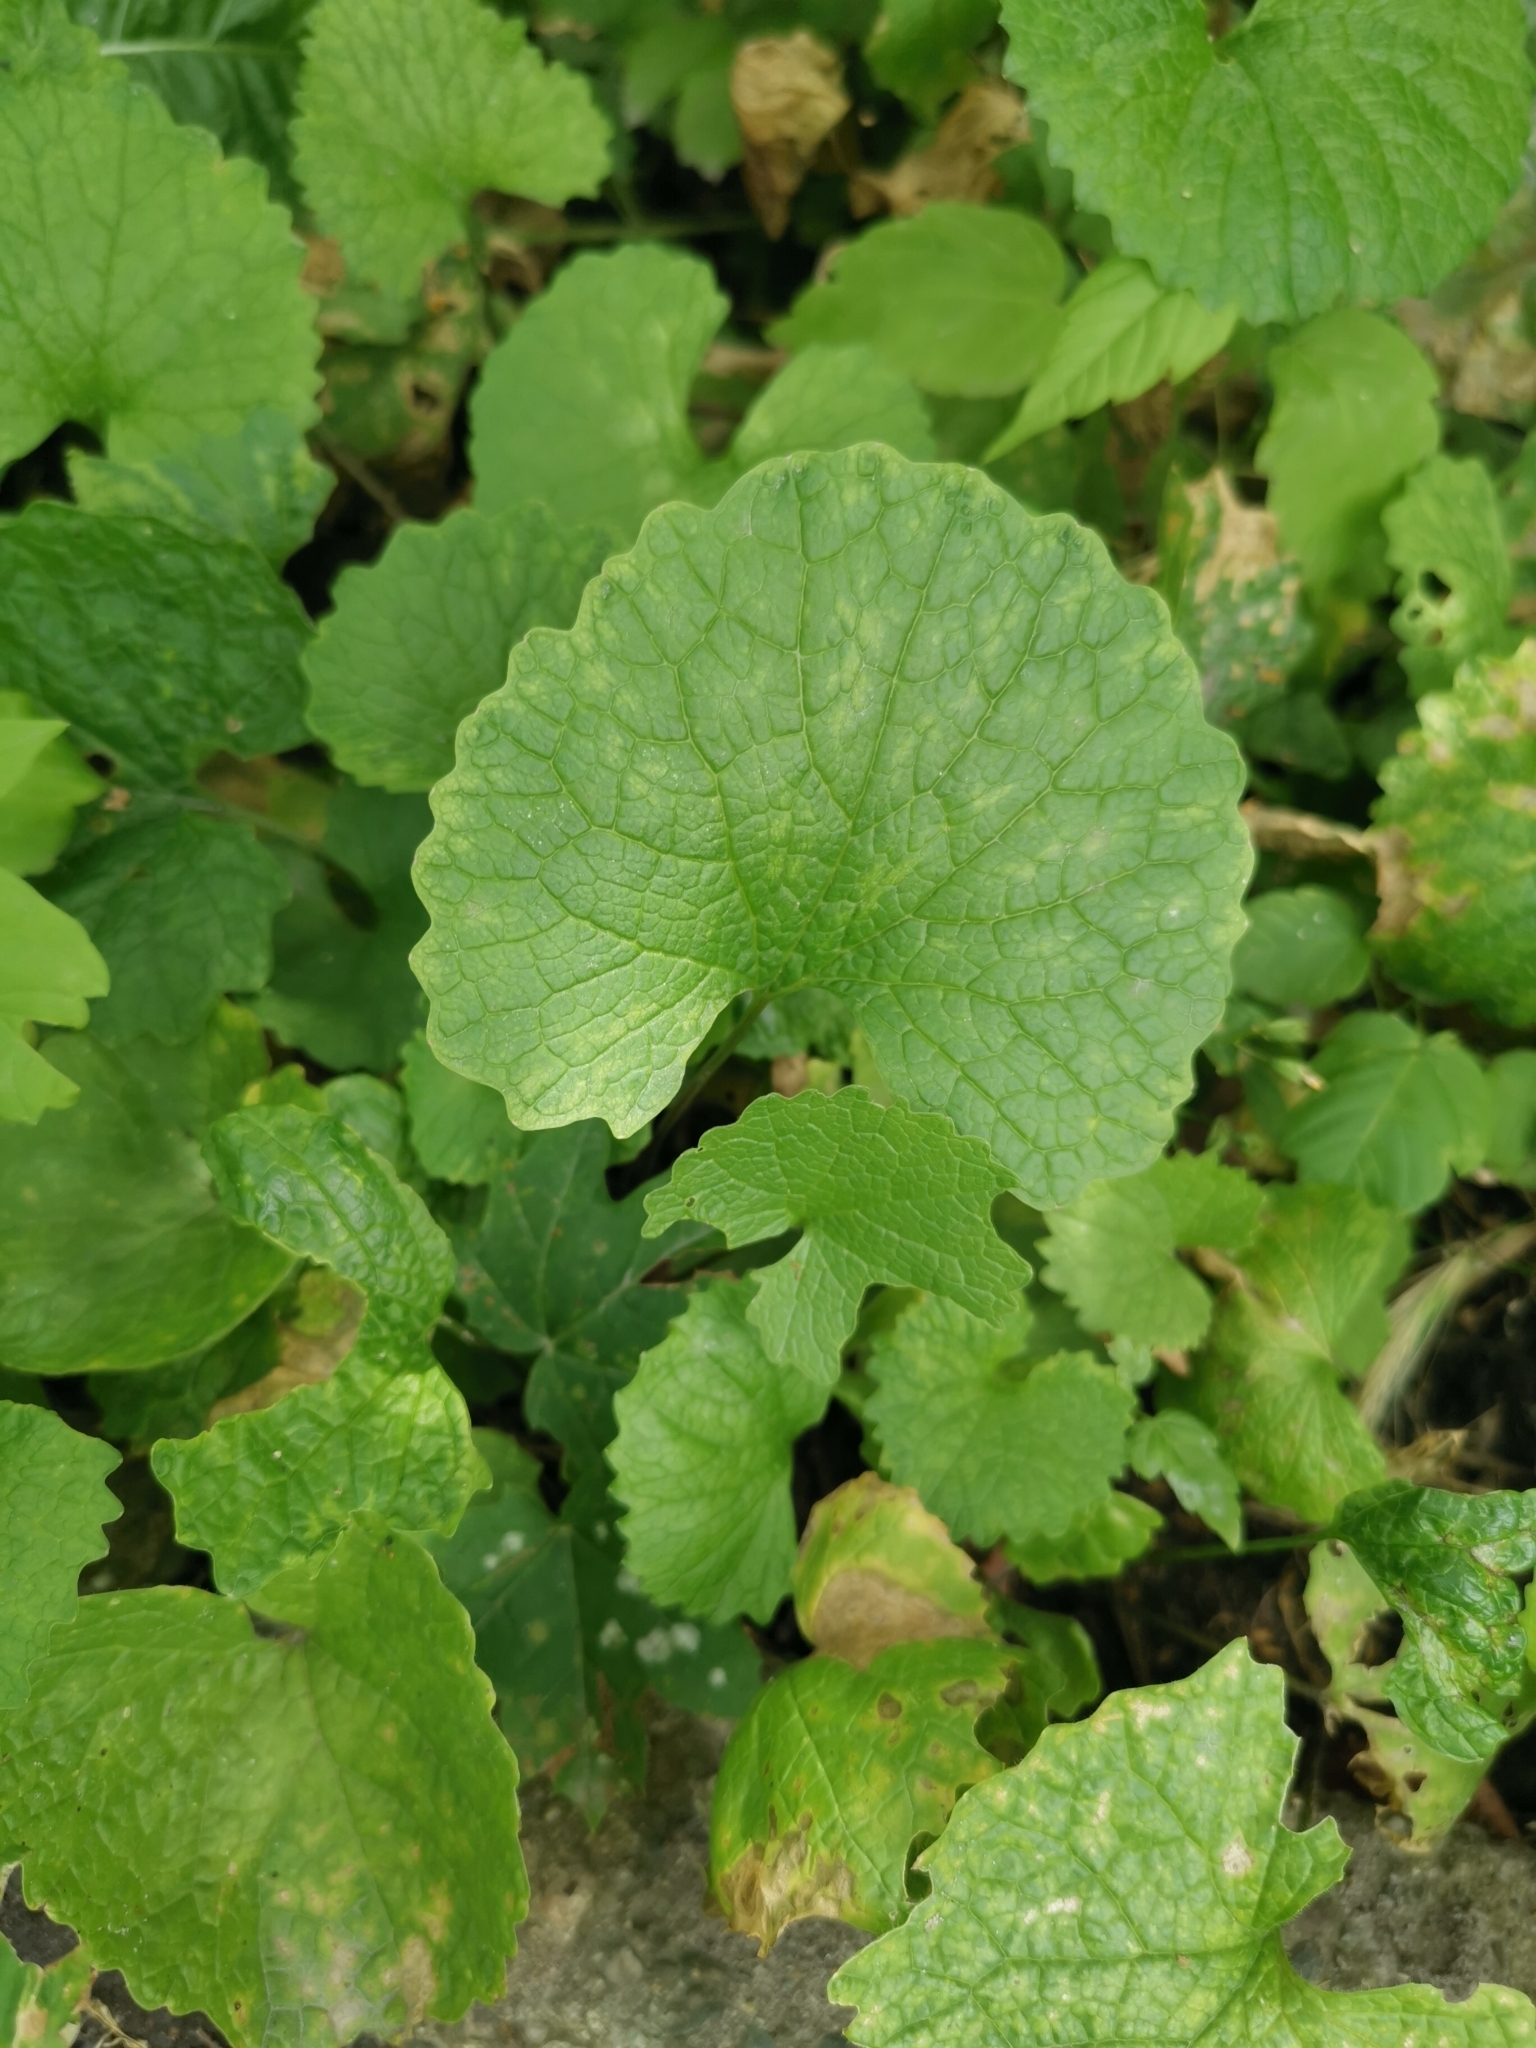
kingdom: Plantae
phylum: Tracheophyta
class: Magnoliopsida
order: Brassicales
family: Brassicaceae
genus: Alliaria
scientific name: Alliaria petiolata
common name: Garlic mustard
